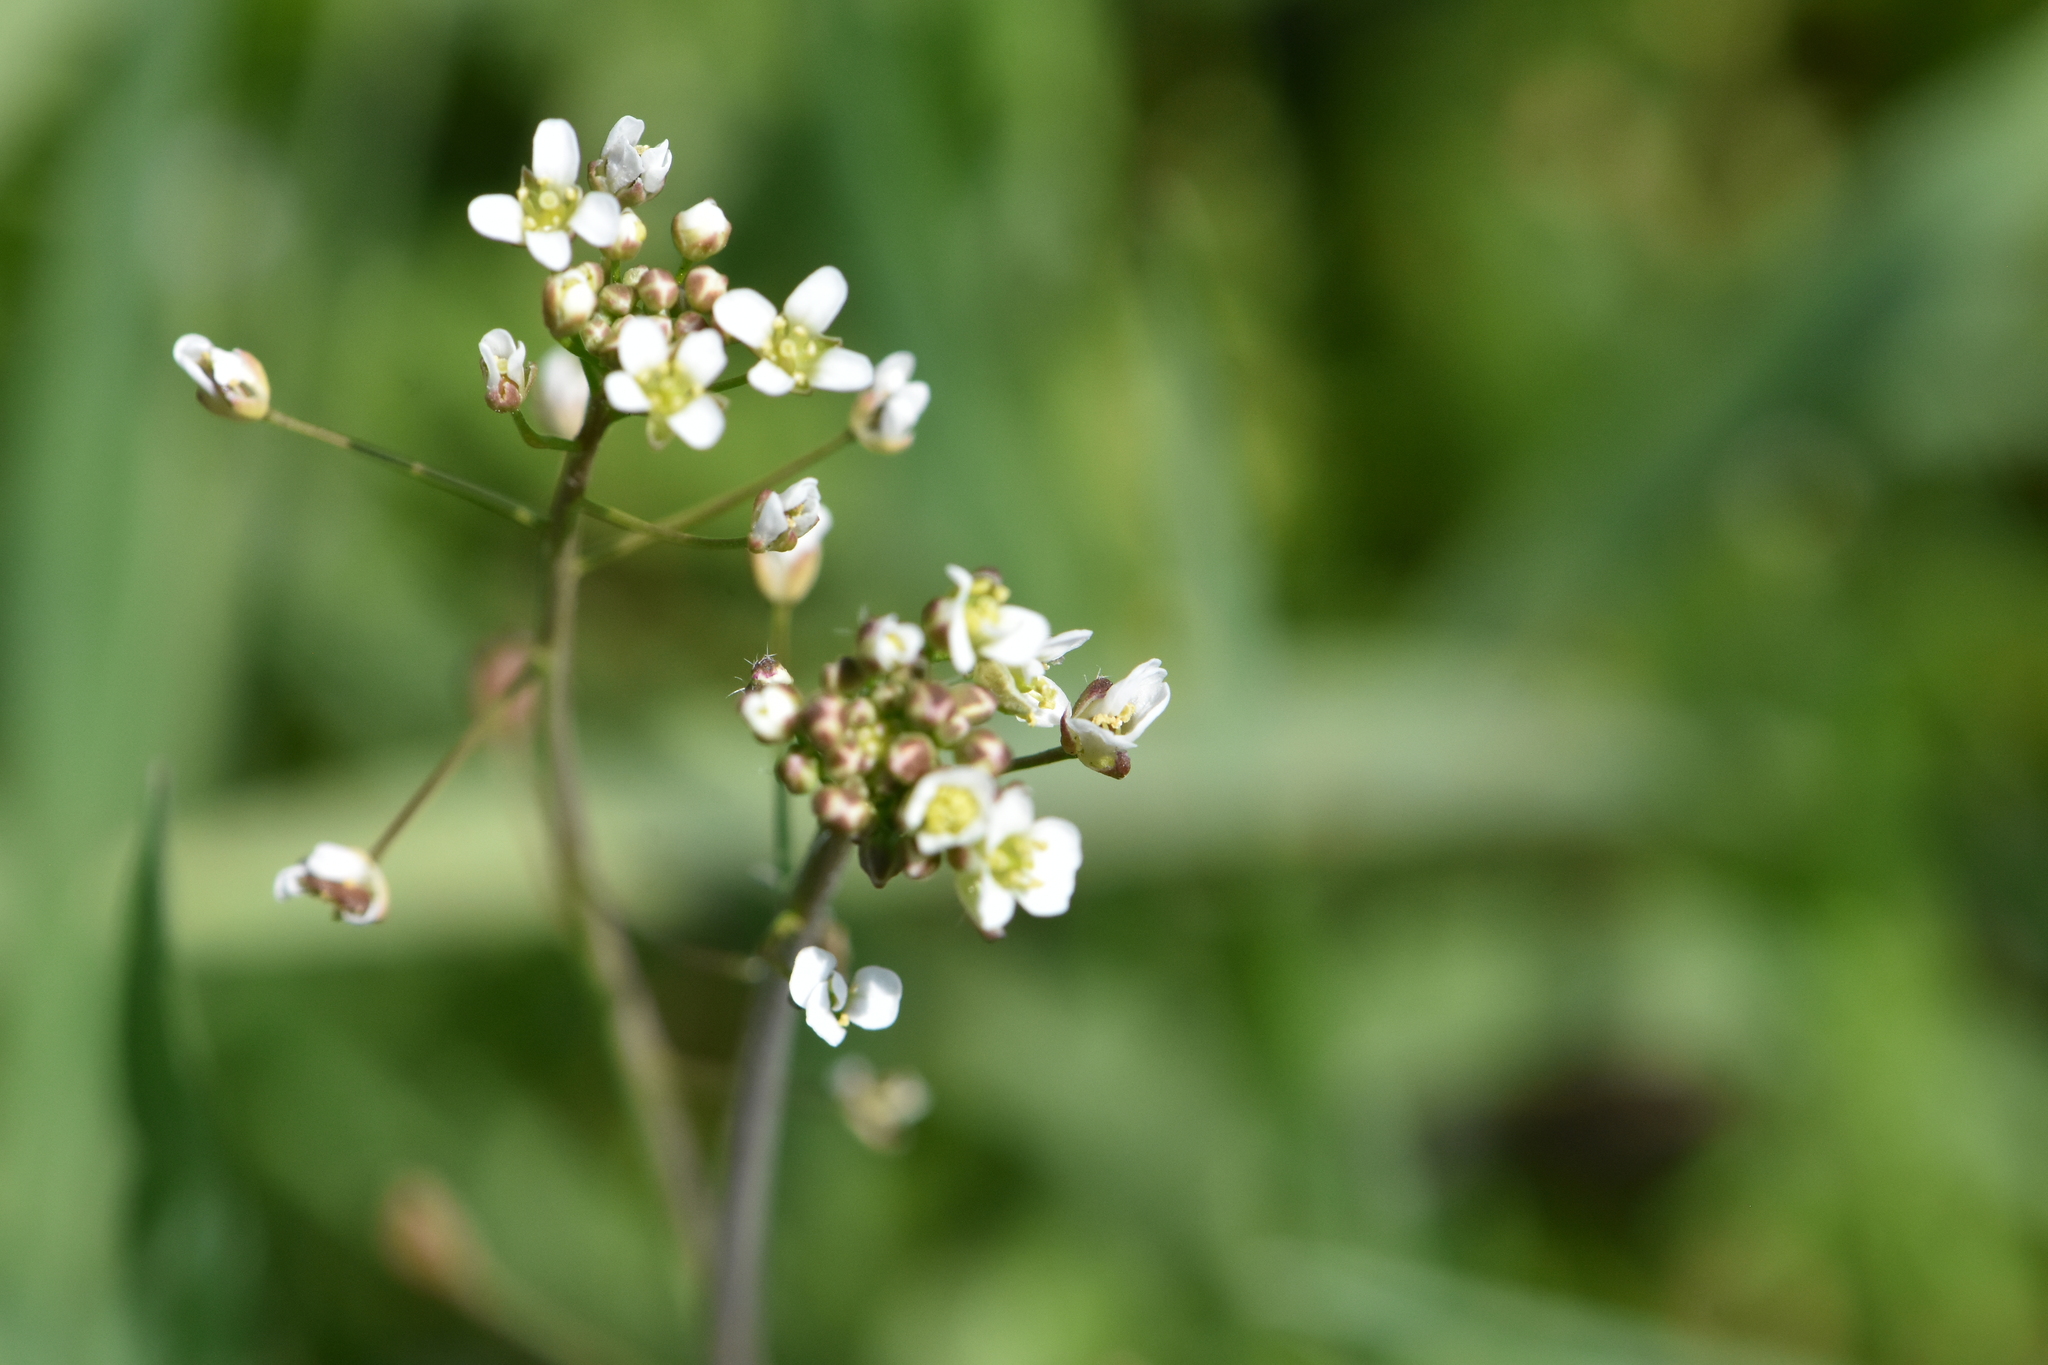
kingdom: Plantae
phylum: Tracheophyta
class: Magnoliopsida
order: Brassicales
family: Brassicaceae
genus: Capsella
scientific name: Capsella bursa-pastoris
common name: Shepherd's purse
